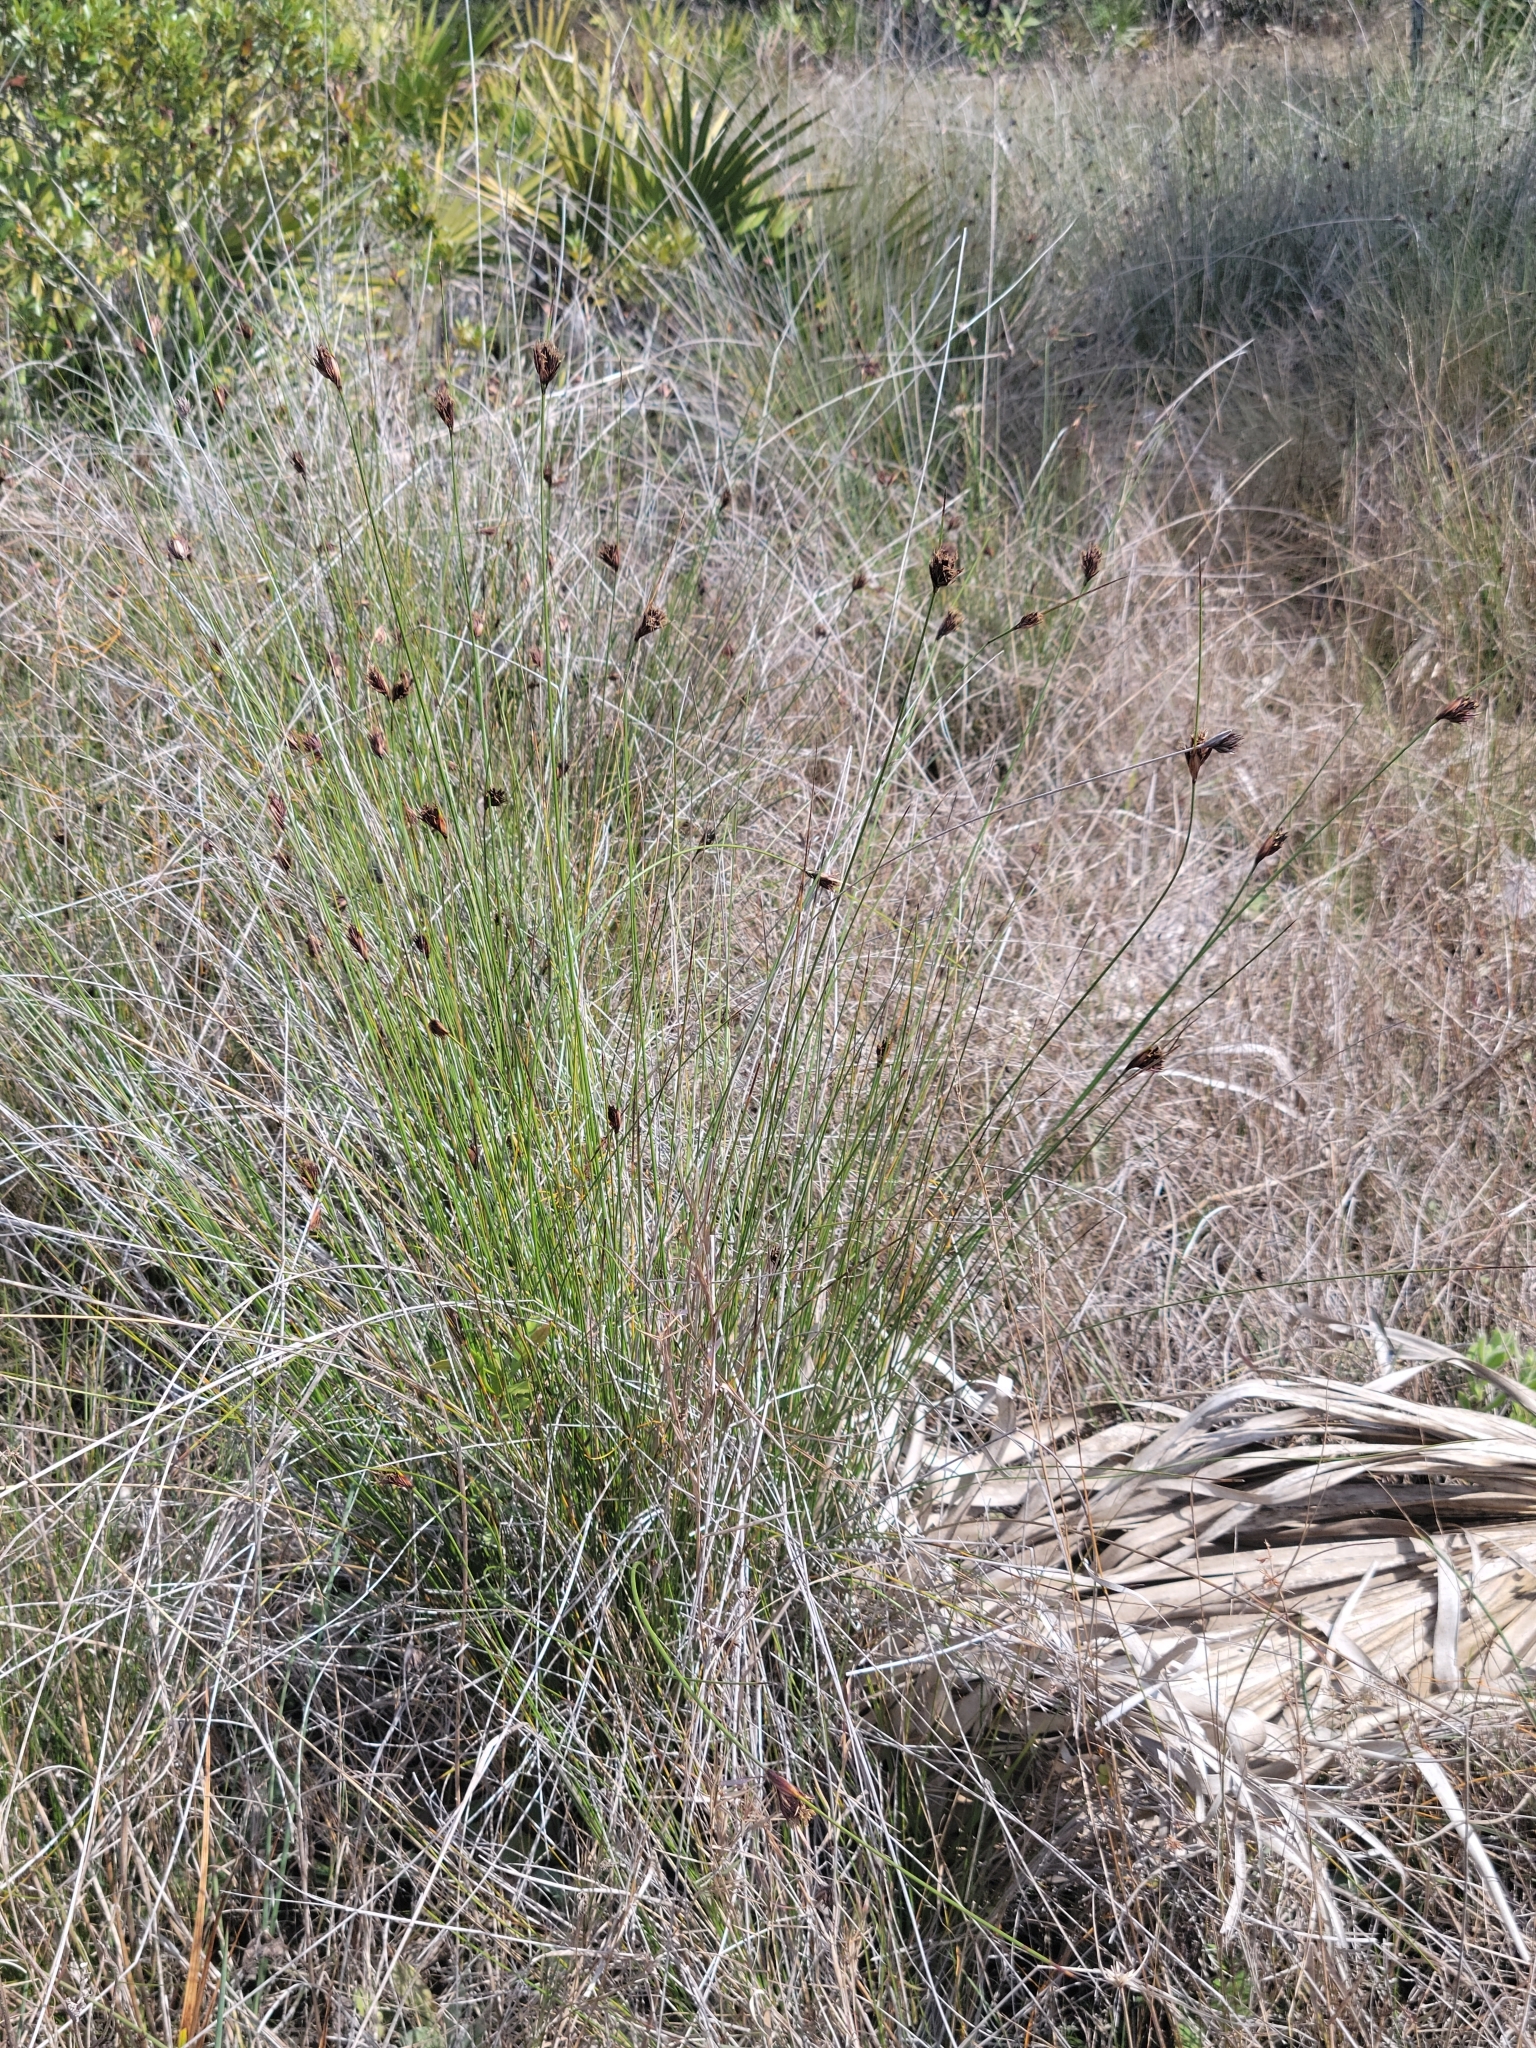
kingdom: Plantae
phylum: Tracheophyta
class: Liliopsida
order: Poales
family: Cyperaceae
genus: Schoenus
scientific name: Schoenus nigricans
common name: Black bog-rush
